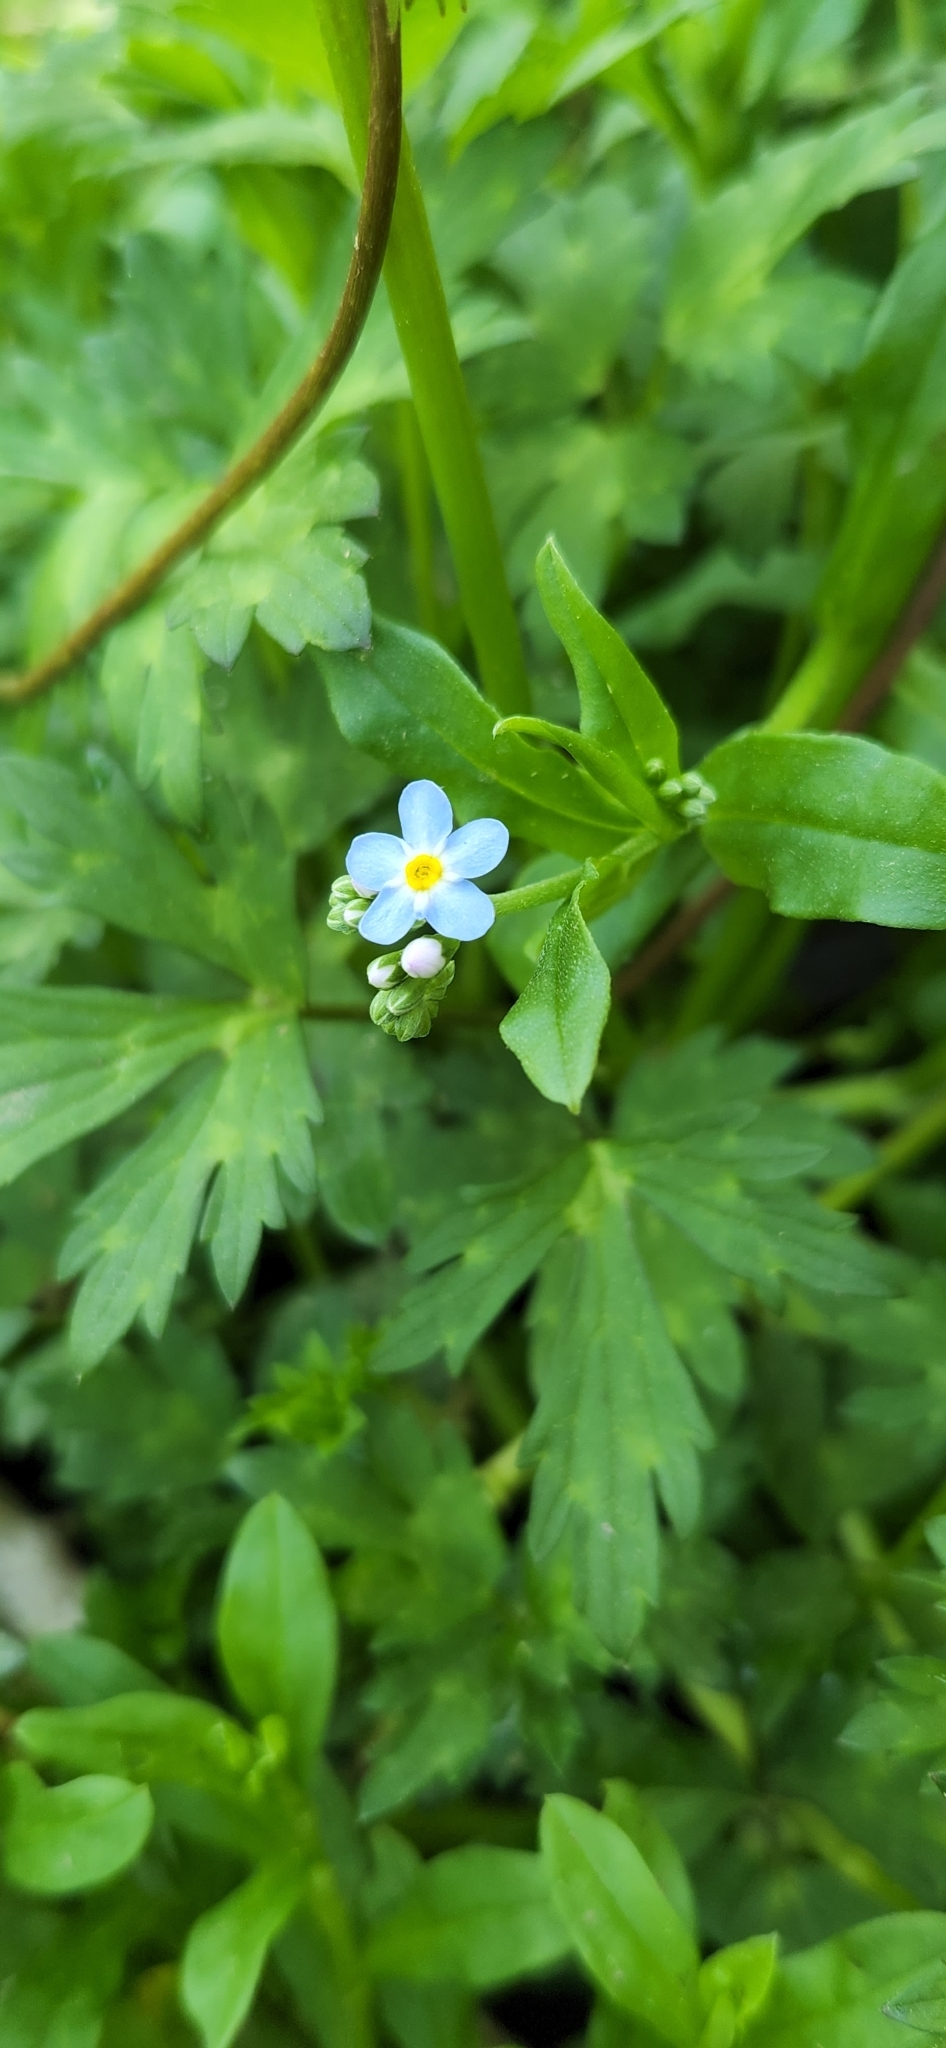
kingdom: Plantae
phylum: Tracheophyta
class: Magnoliopsida
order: Boraginales
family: Boraginaceae
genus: Myosotis
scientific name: Myosotis scorpioides
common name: Water forget-me-not
